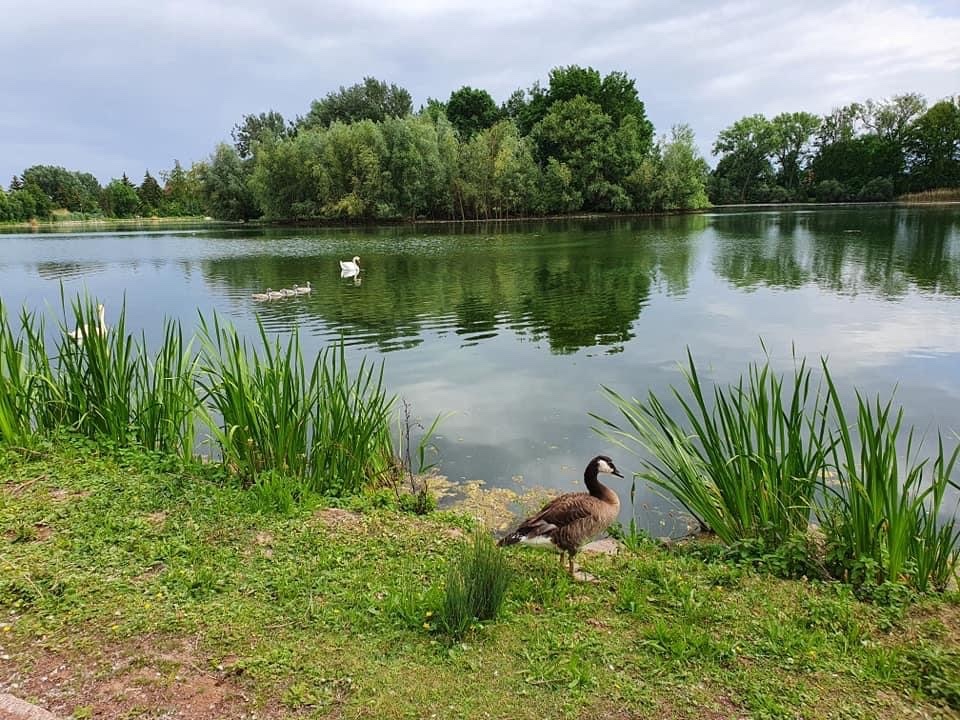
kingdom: Animalia
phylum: Chordata
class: Aves
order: Anseriformes
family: Anatidae
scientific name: Anatidae
